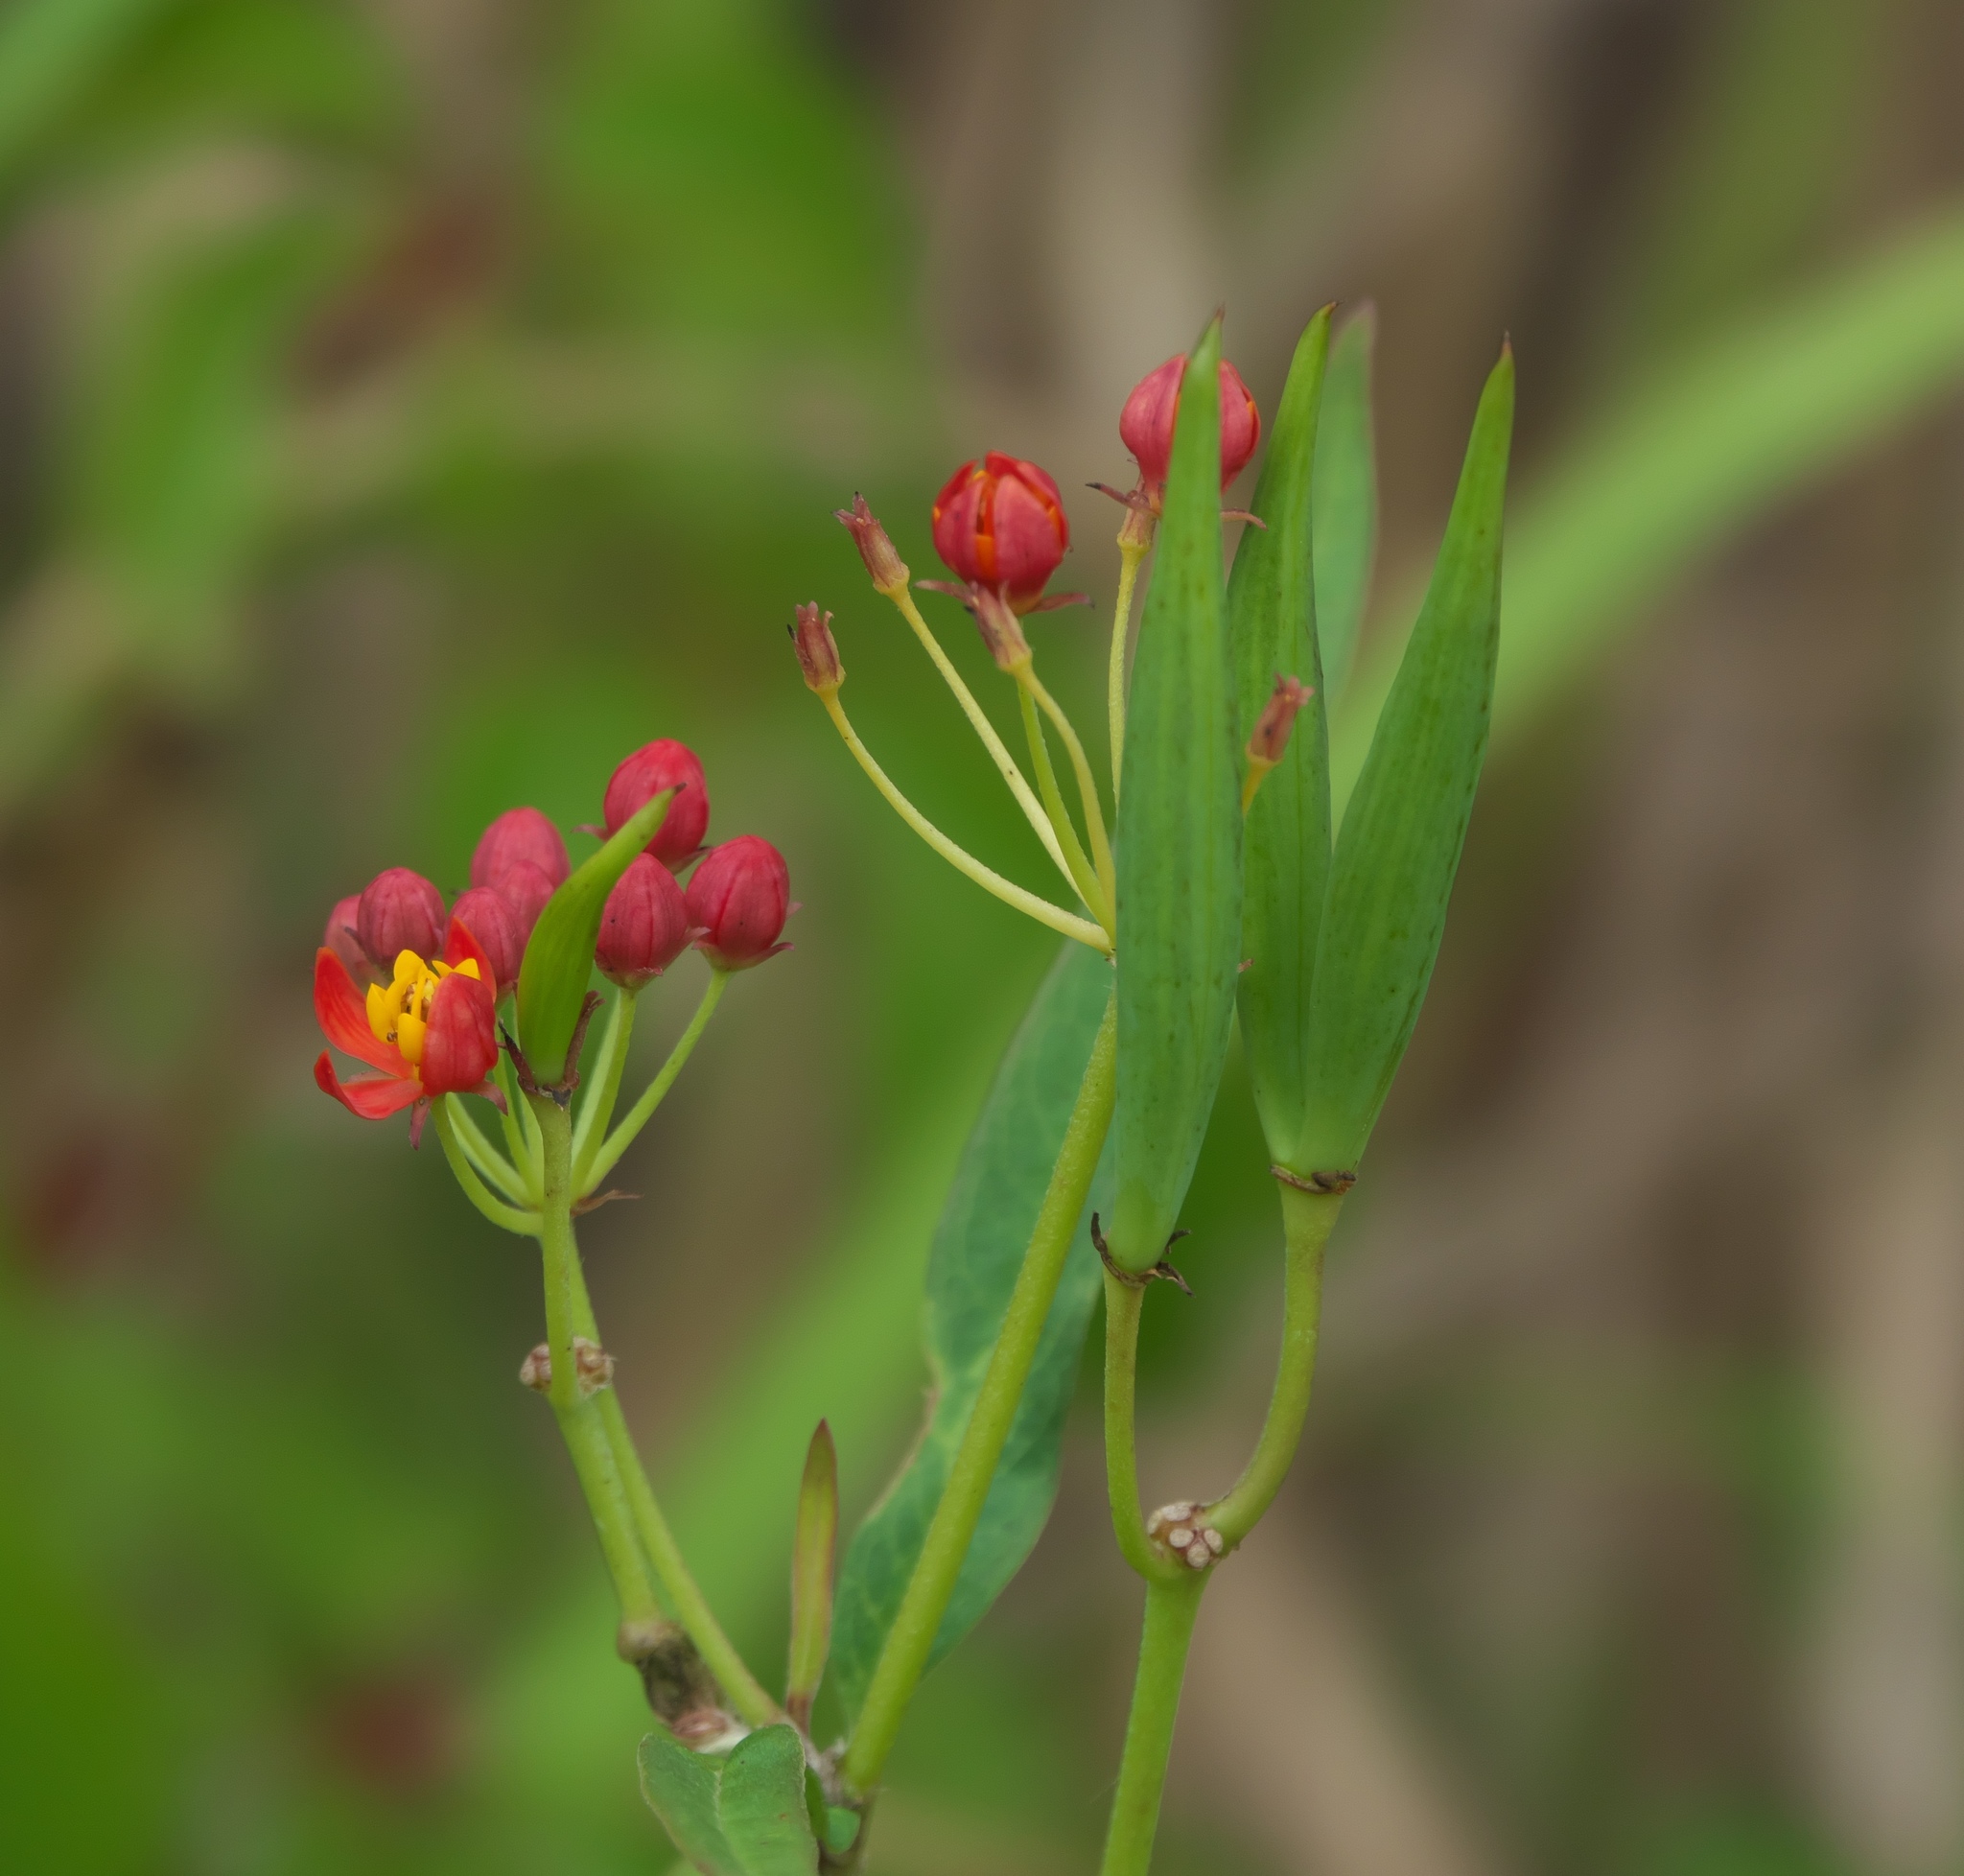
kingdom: Plantae
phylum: Tracheophyta
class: Magnoliopsida
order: Gentianales
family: Apocynaceae
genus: Asclepias
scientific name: Asclepias curassavica
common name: Bloodflower
